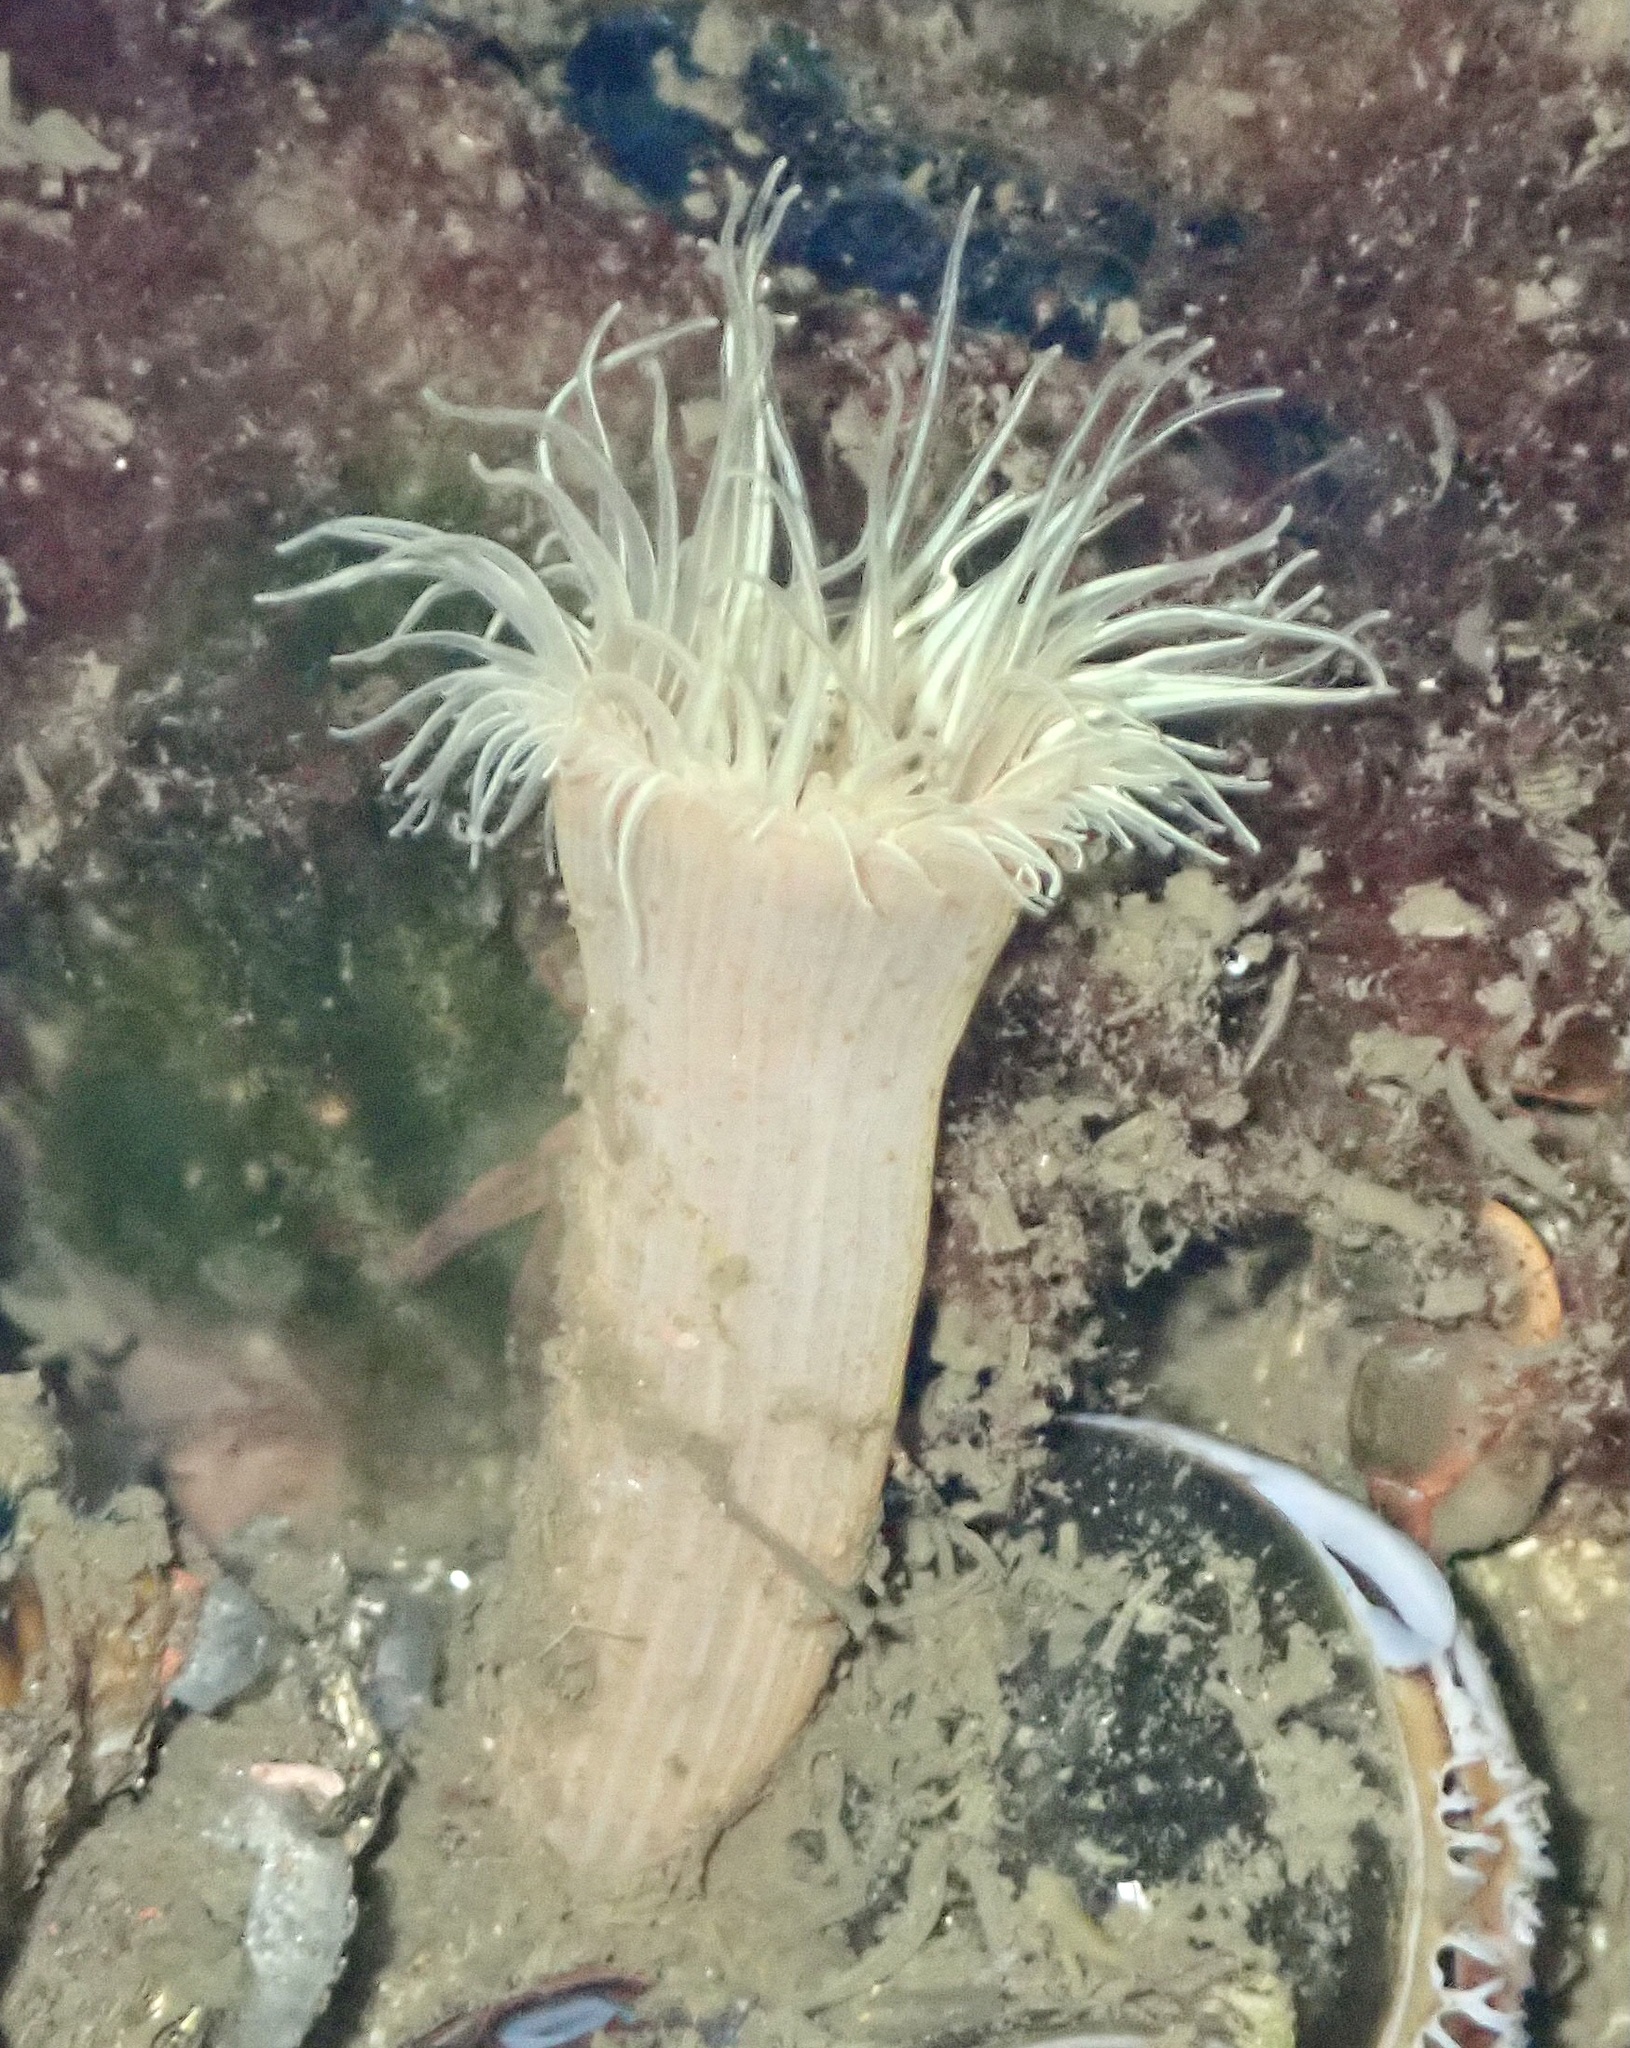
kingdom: Animalia
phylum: Cnidaria
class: Anthozoa
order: Actiniaria
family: Sagartiidae
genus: Sagartia
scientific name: Sagartia undata
